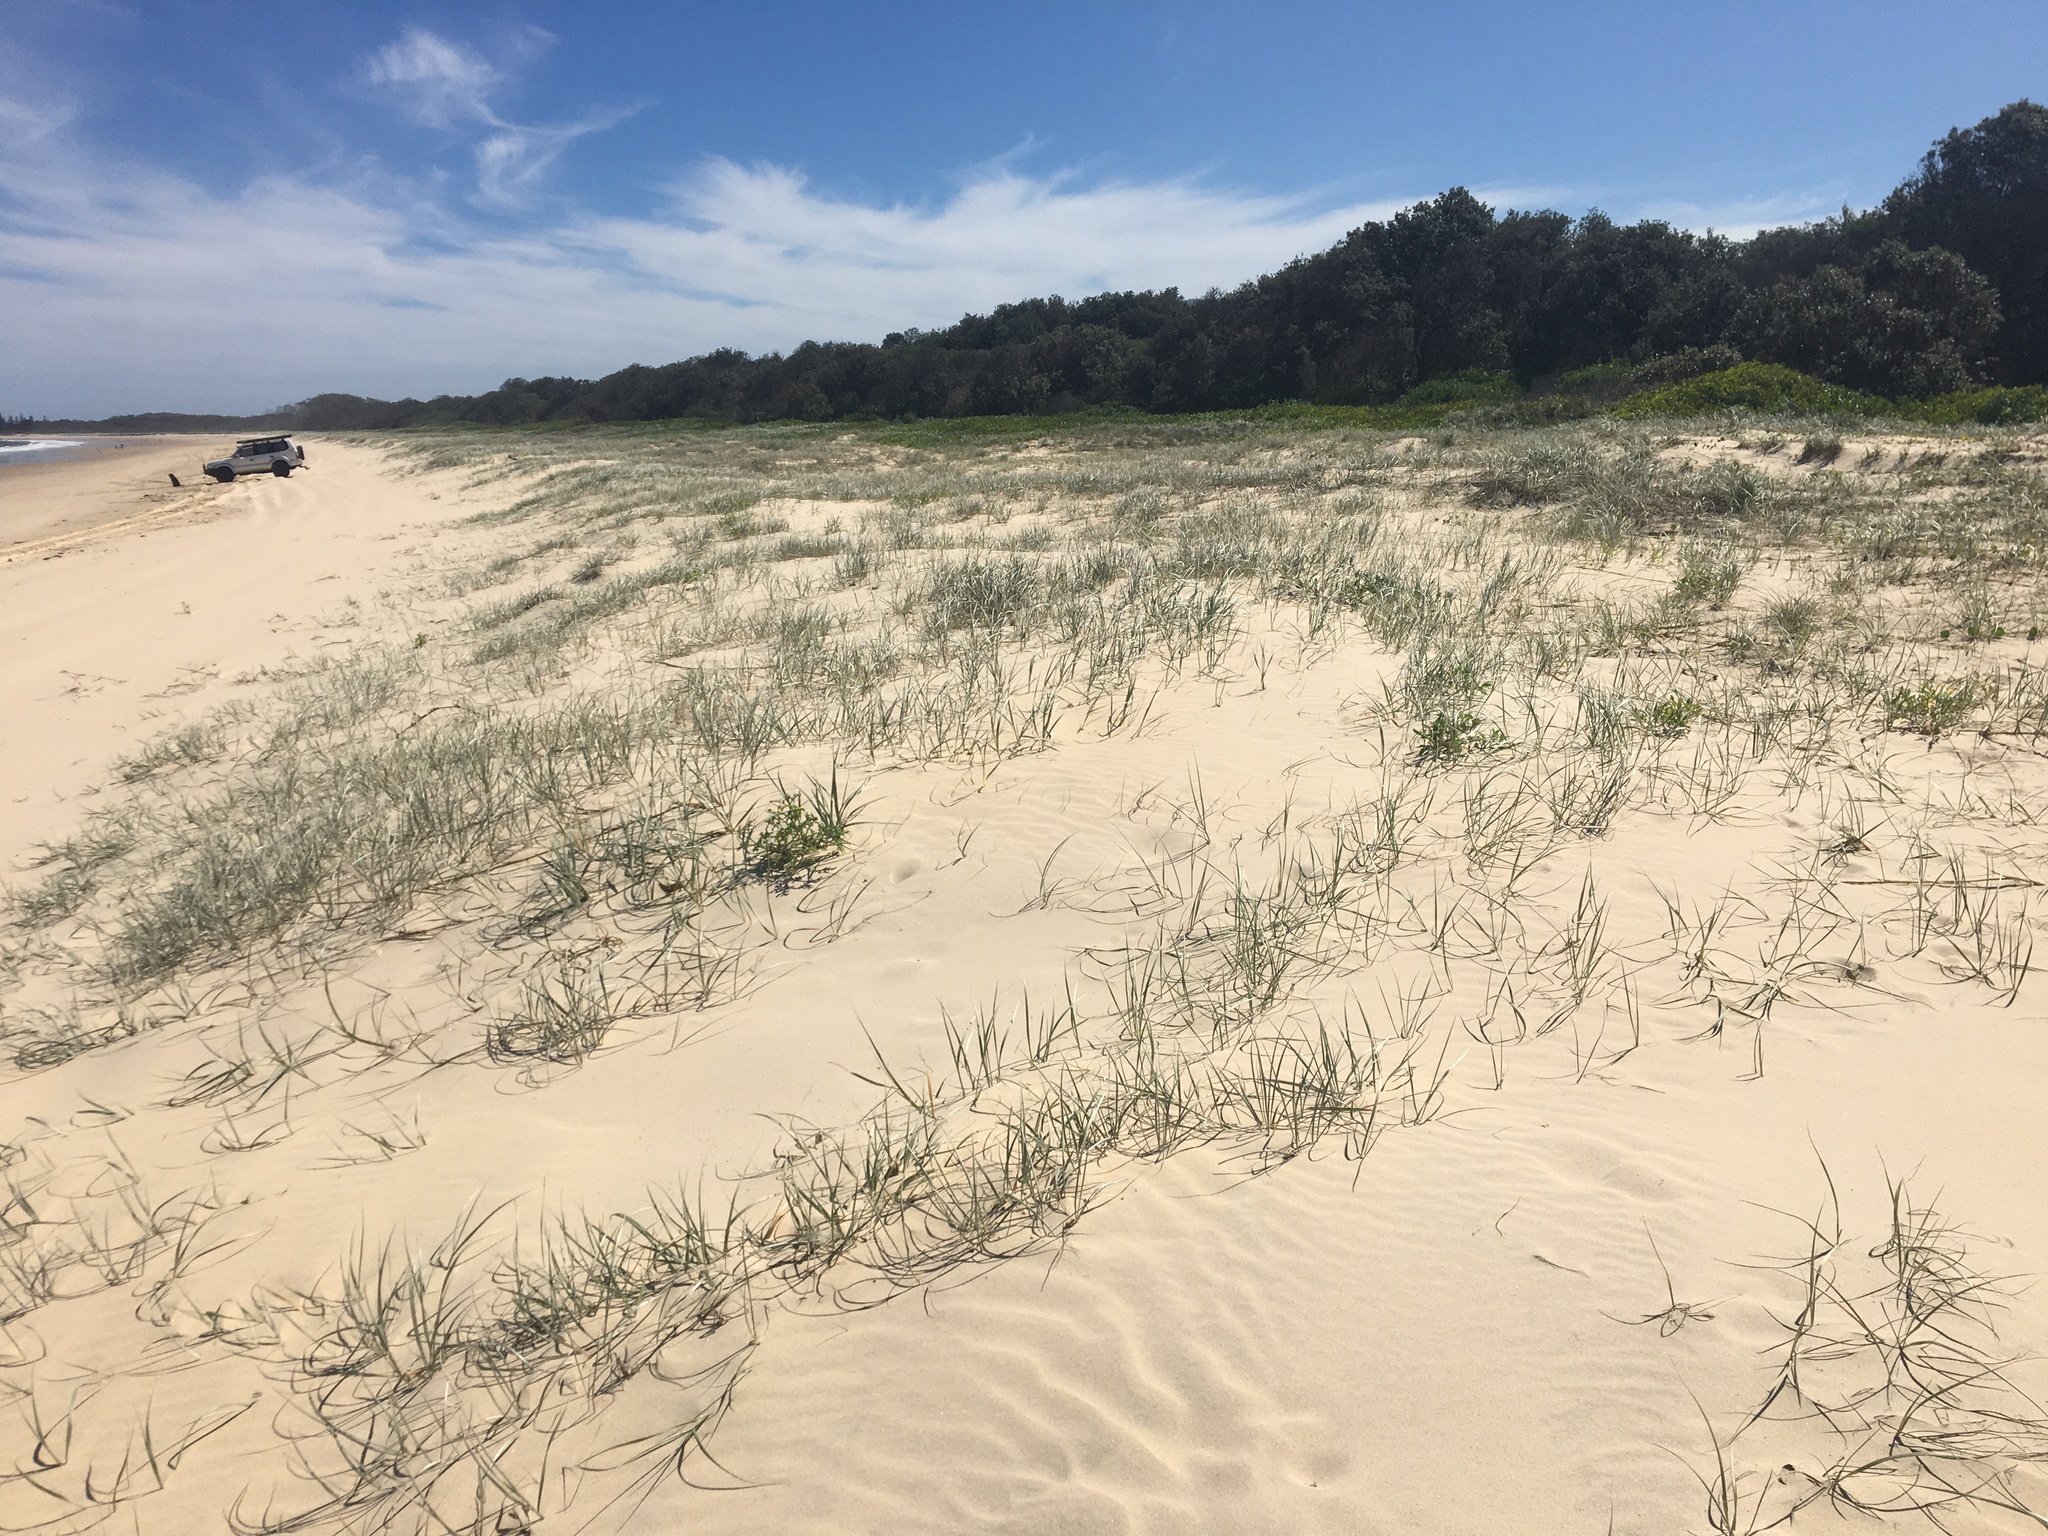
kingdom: Plantae
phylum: Tracheophyta
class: Liliopsida
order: Poales
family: Poaceae
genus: Spinifex
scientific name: Spinifex sericeus
